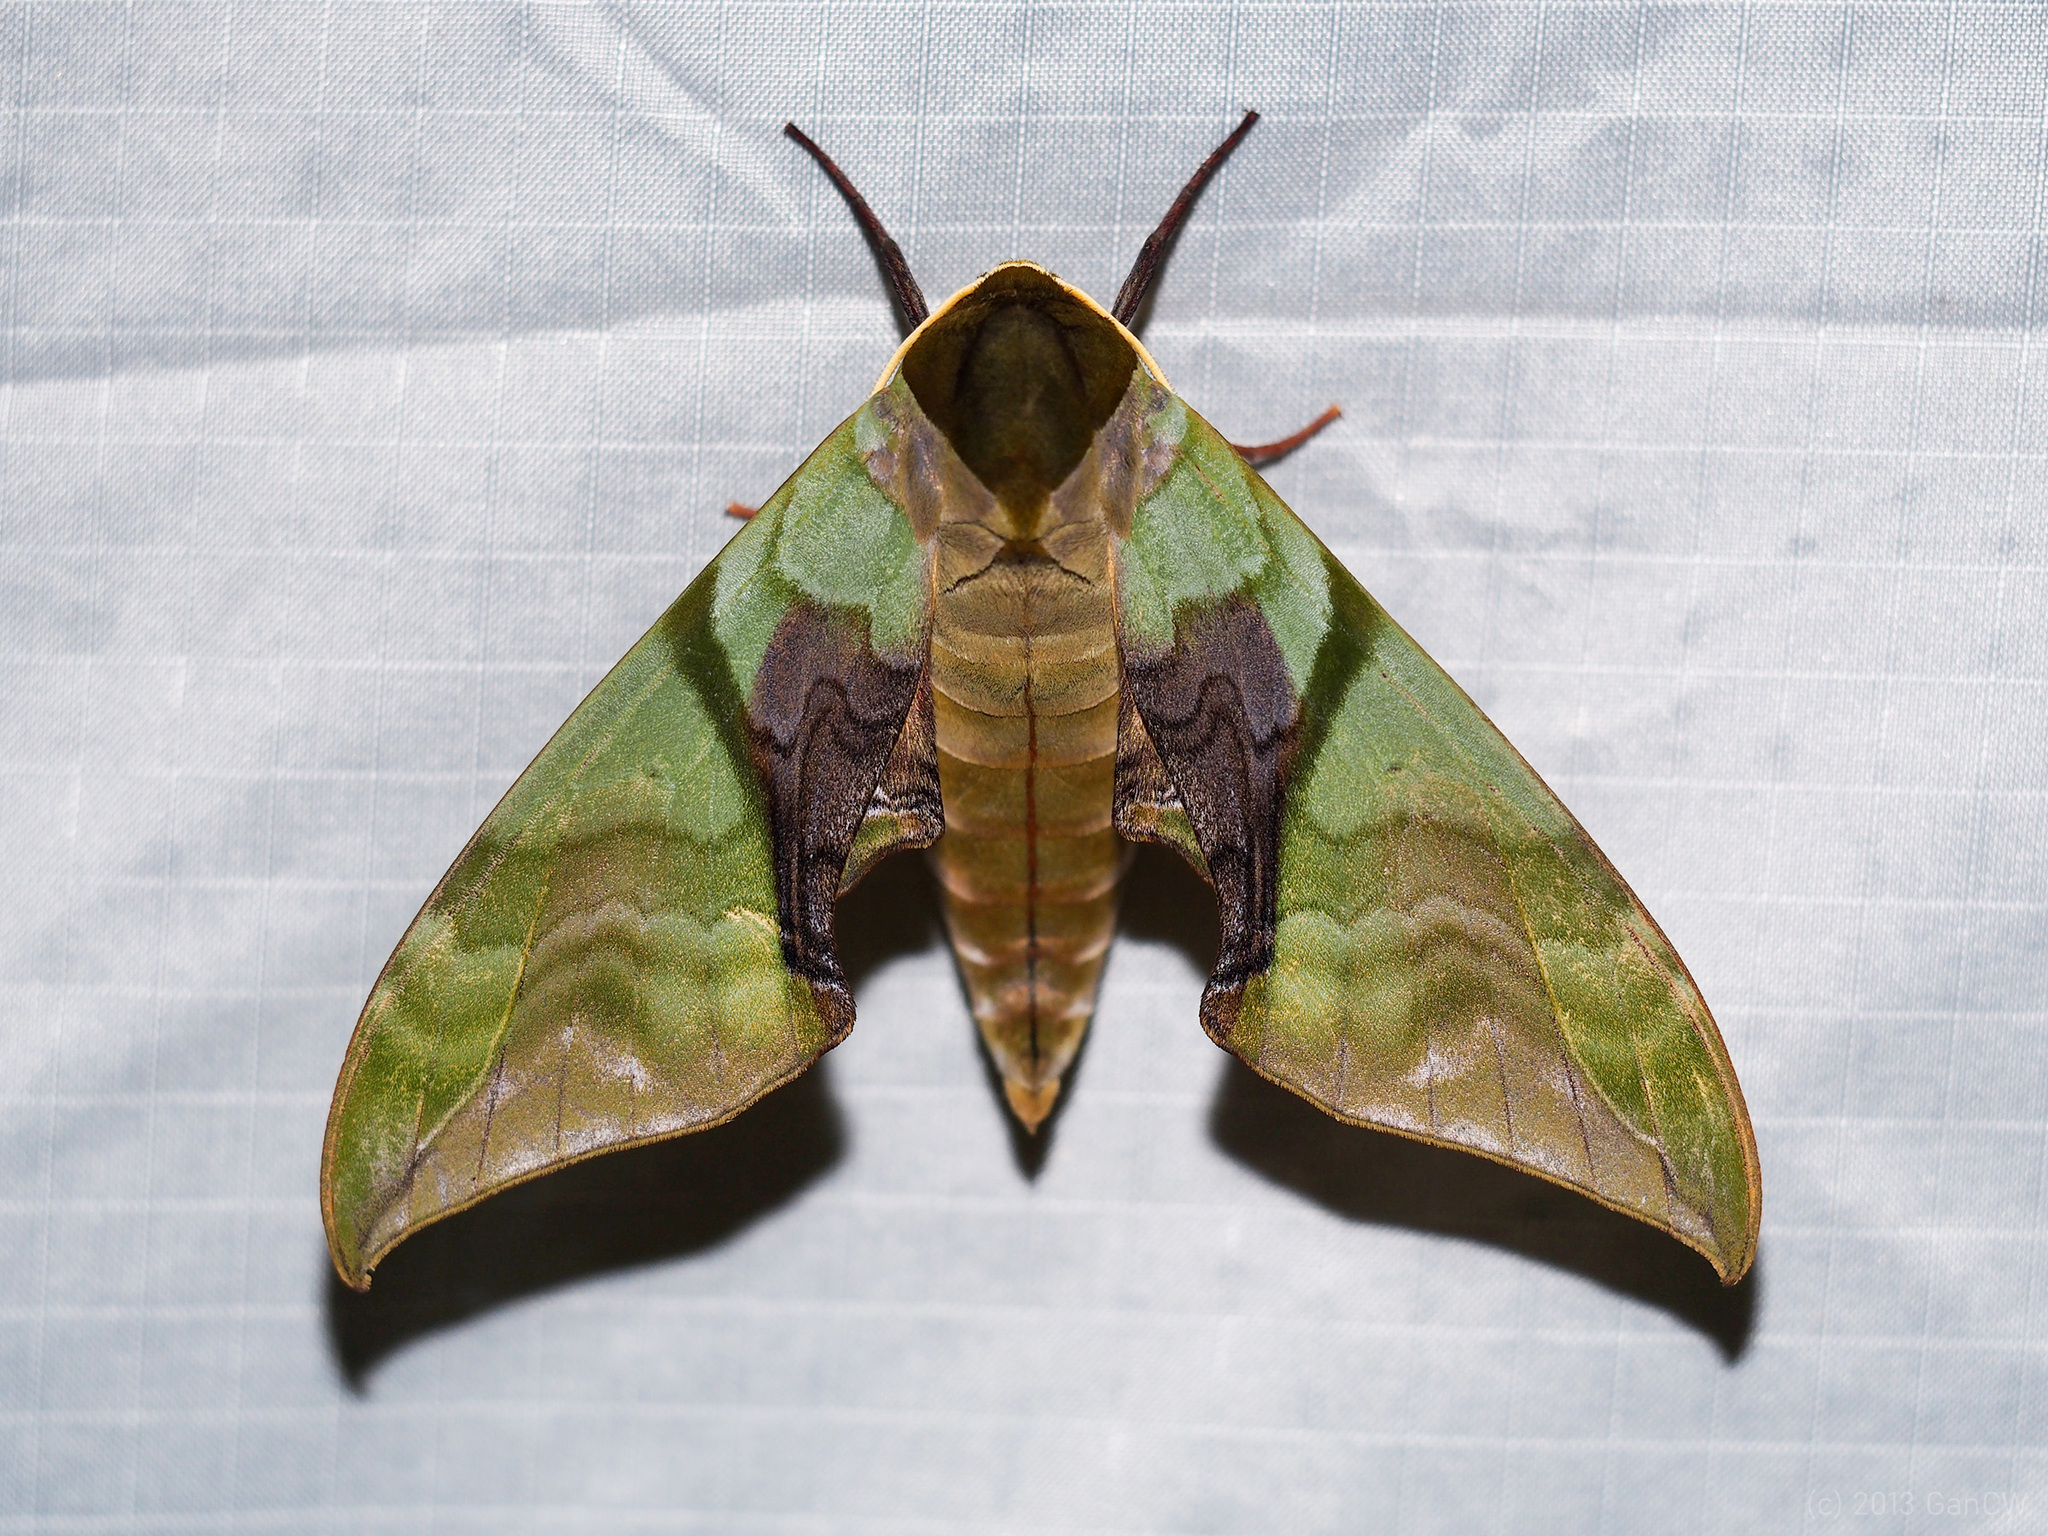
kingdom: Animalia
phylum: Arthropoda
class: Insecta
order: Lepidoptera
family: Sphingidae
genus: Callambulyx
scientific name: Callambulyx amanda
